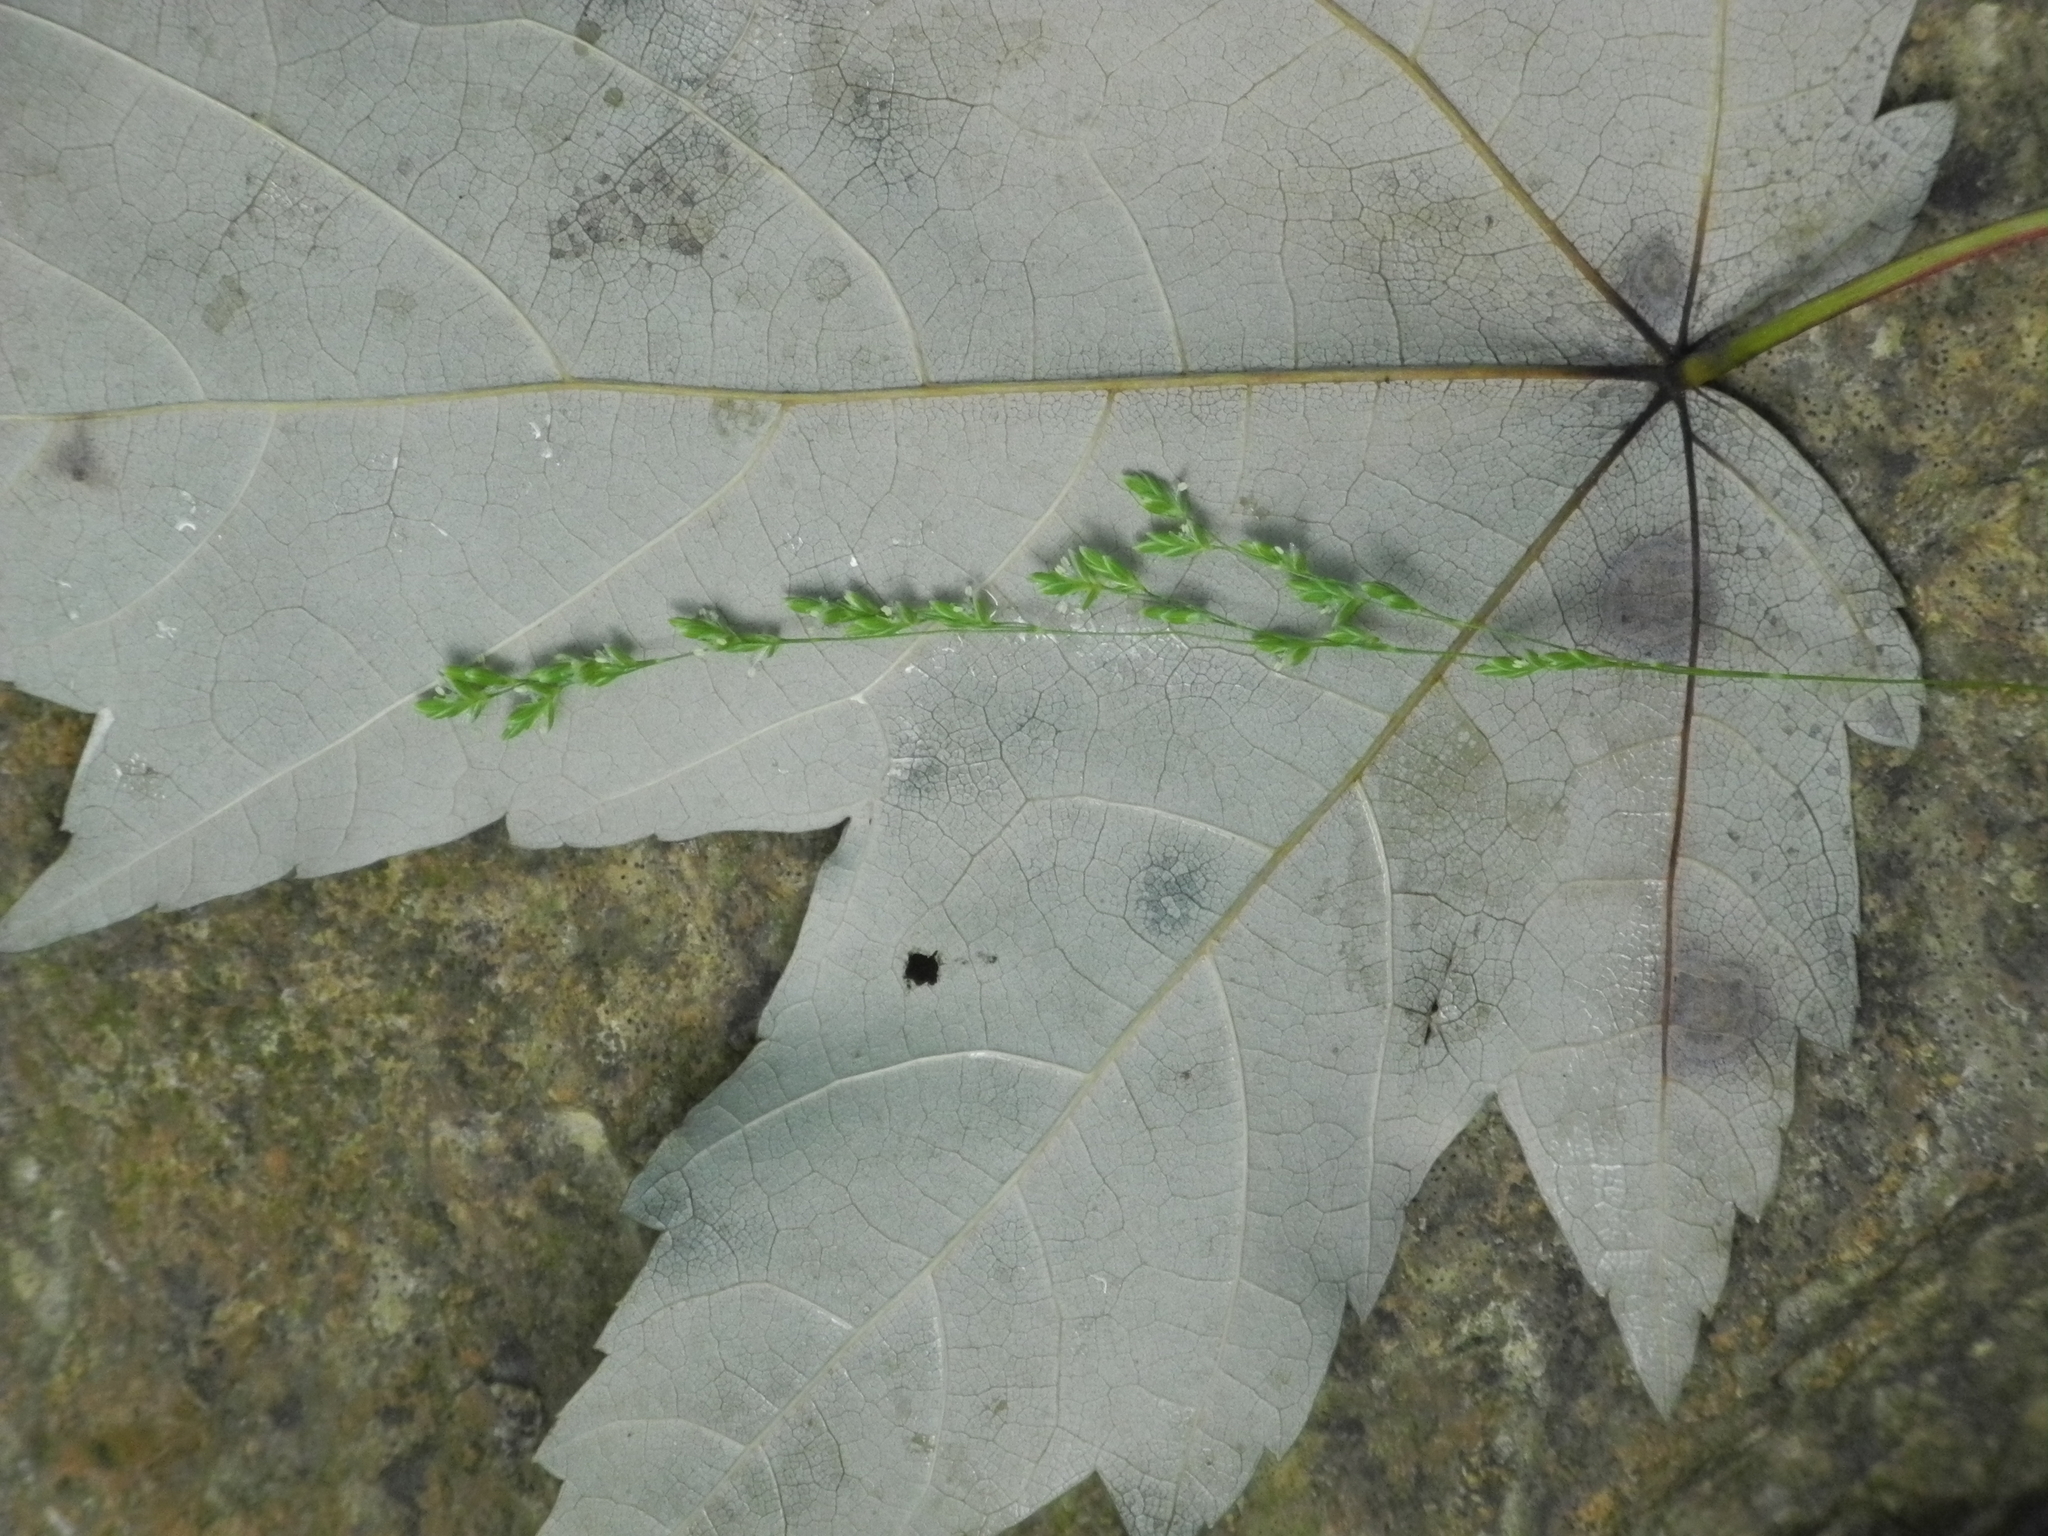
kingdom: Plantae
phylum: Tracheophyta
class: Liliopsida
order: Poales
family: Poaceae
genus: Glyceria
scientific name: Glyceria striata
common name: Fowl manna grass
